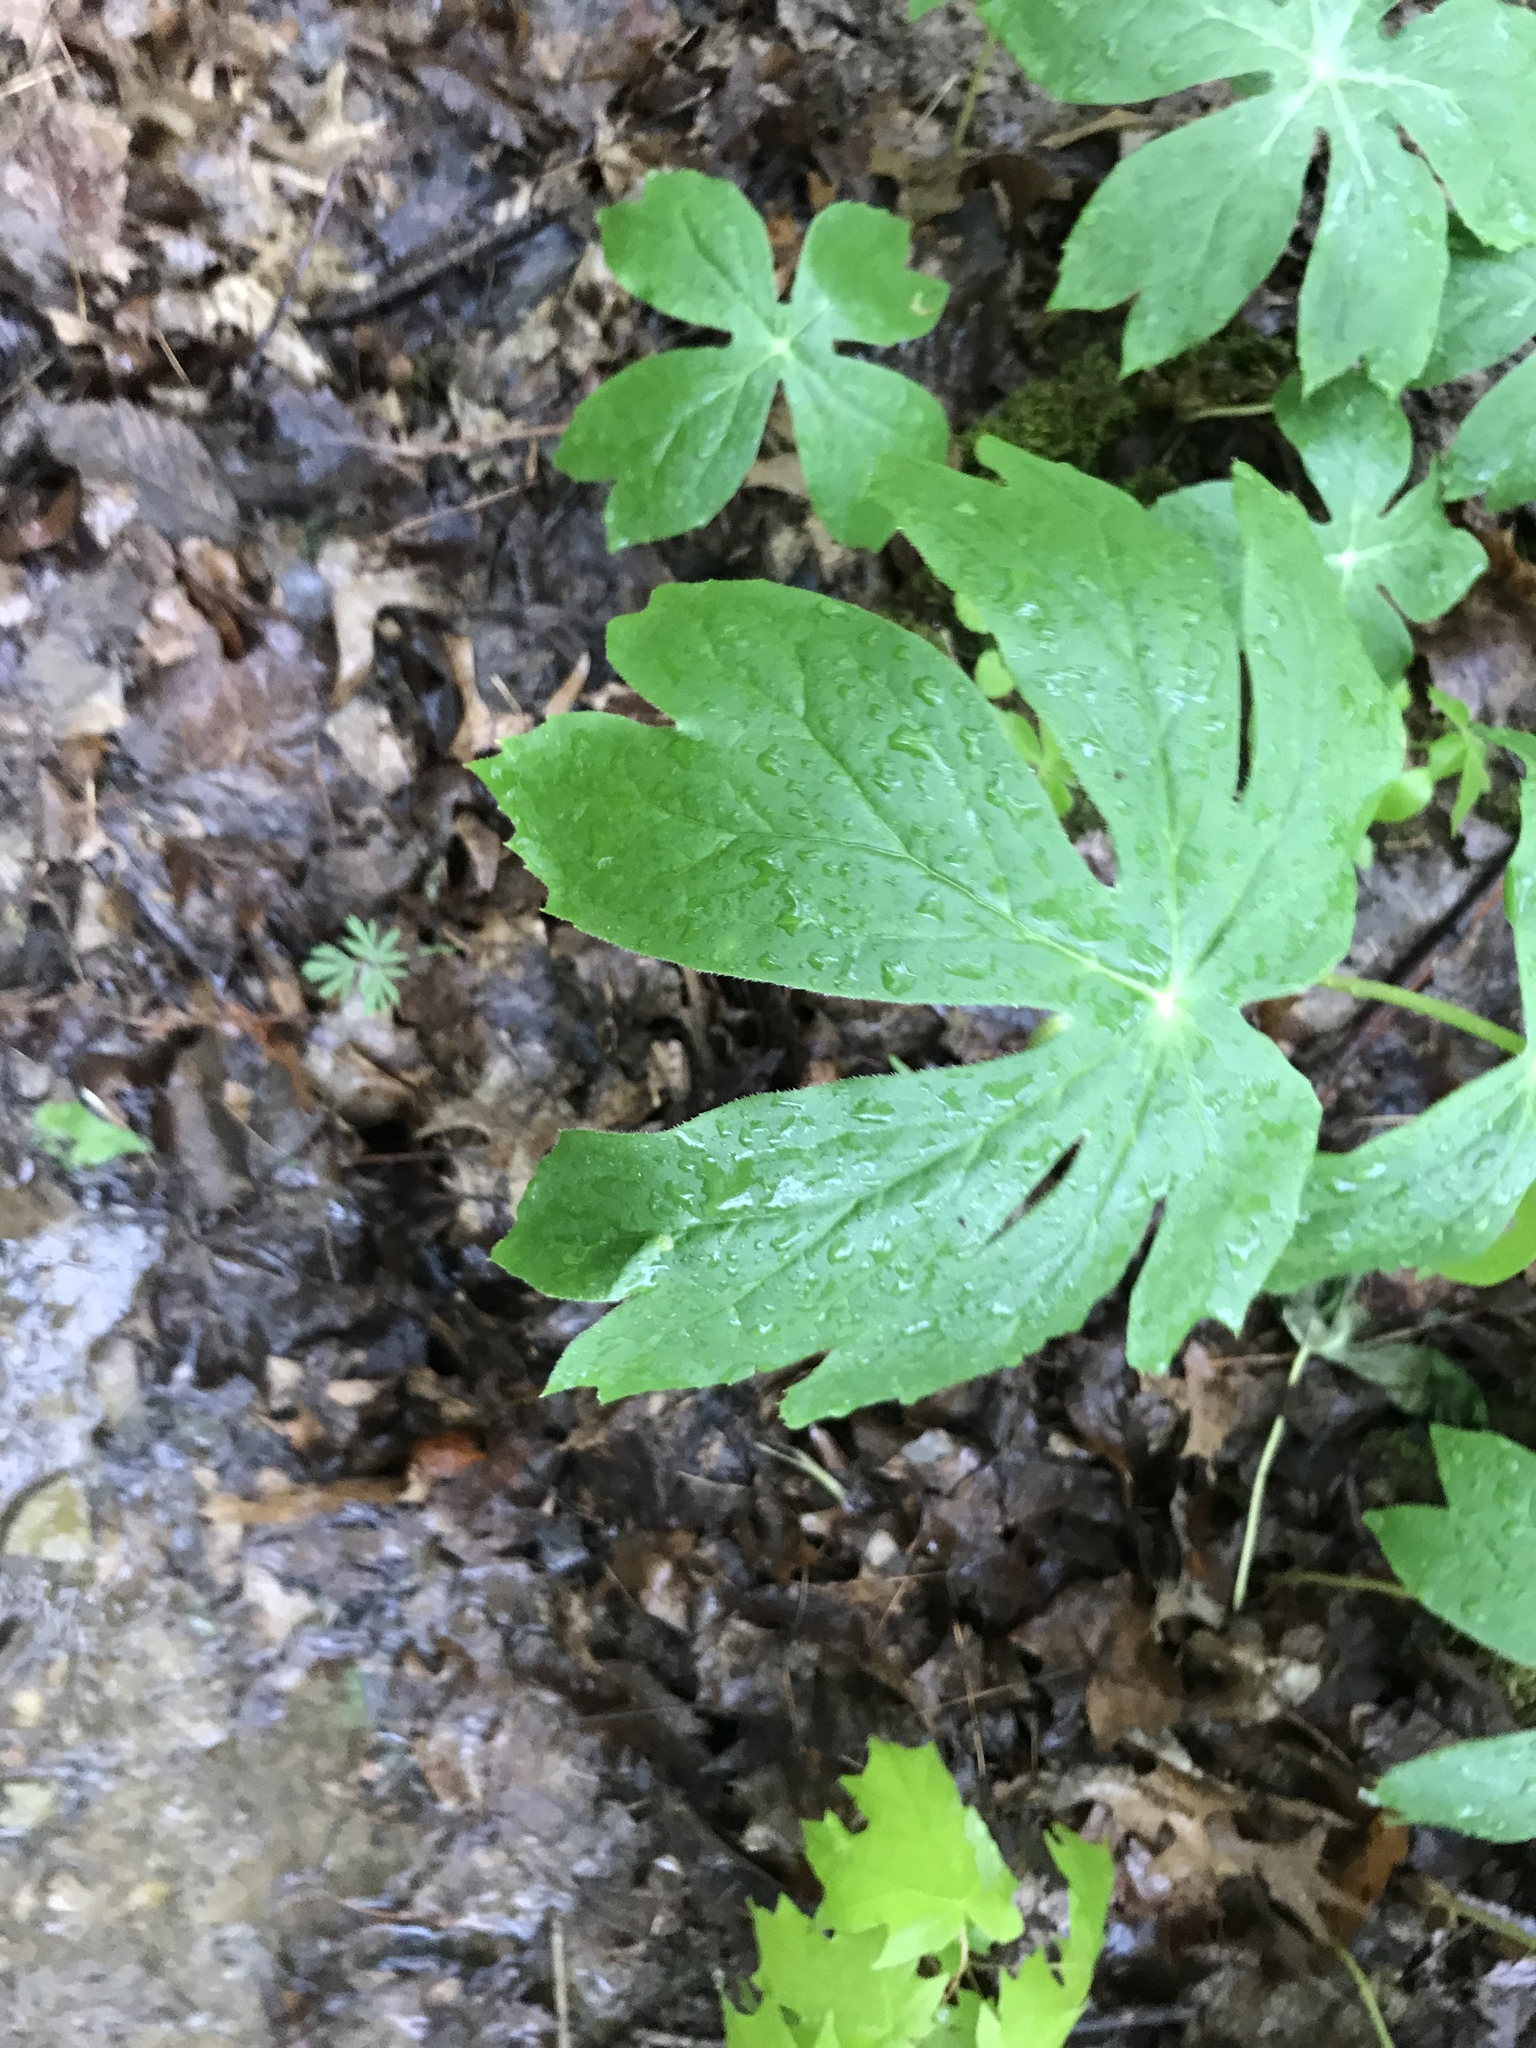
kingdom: Plantae
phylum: Tracheophyta
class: Magnoliopsida
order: Ranunculales
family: Berberidaceae
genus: Podophyllum
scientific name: Podophyllum peltatum
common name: Wild mandrake
